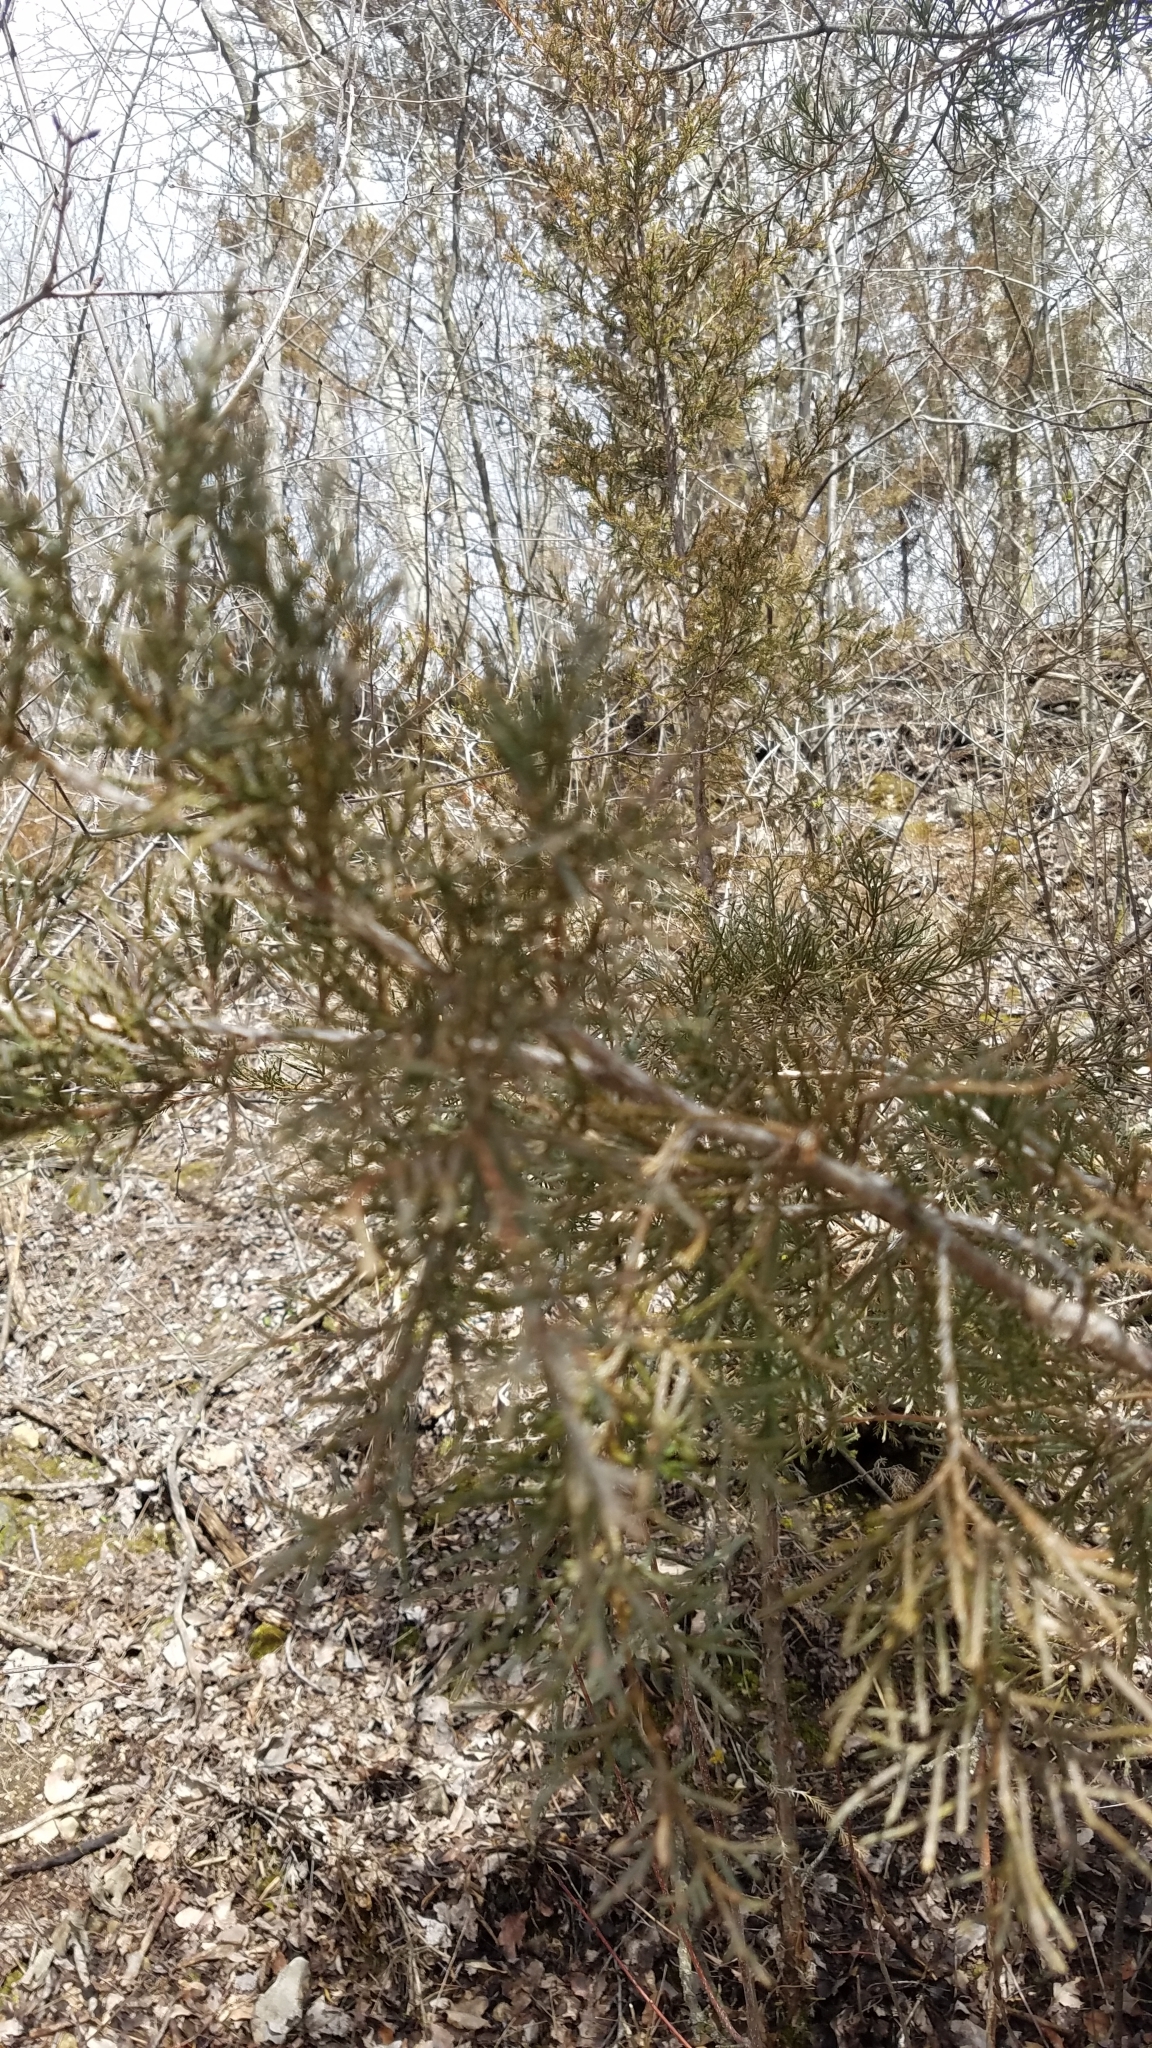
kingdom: Plantae
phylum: Tracheophyta
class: Pinopsida
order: Pinales
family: Cupressaceae
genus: Juniperus
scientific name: Juniperus virginiana
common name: Red juniper
